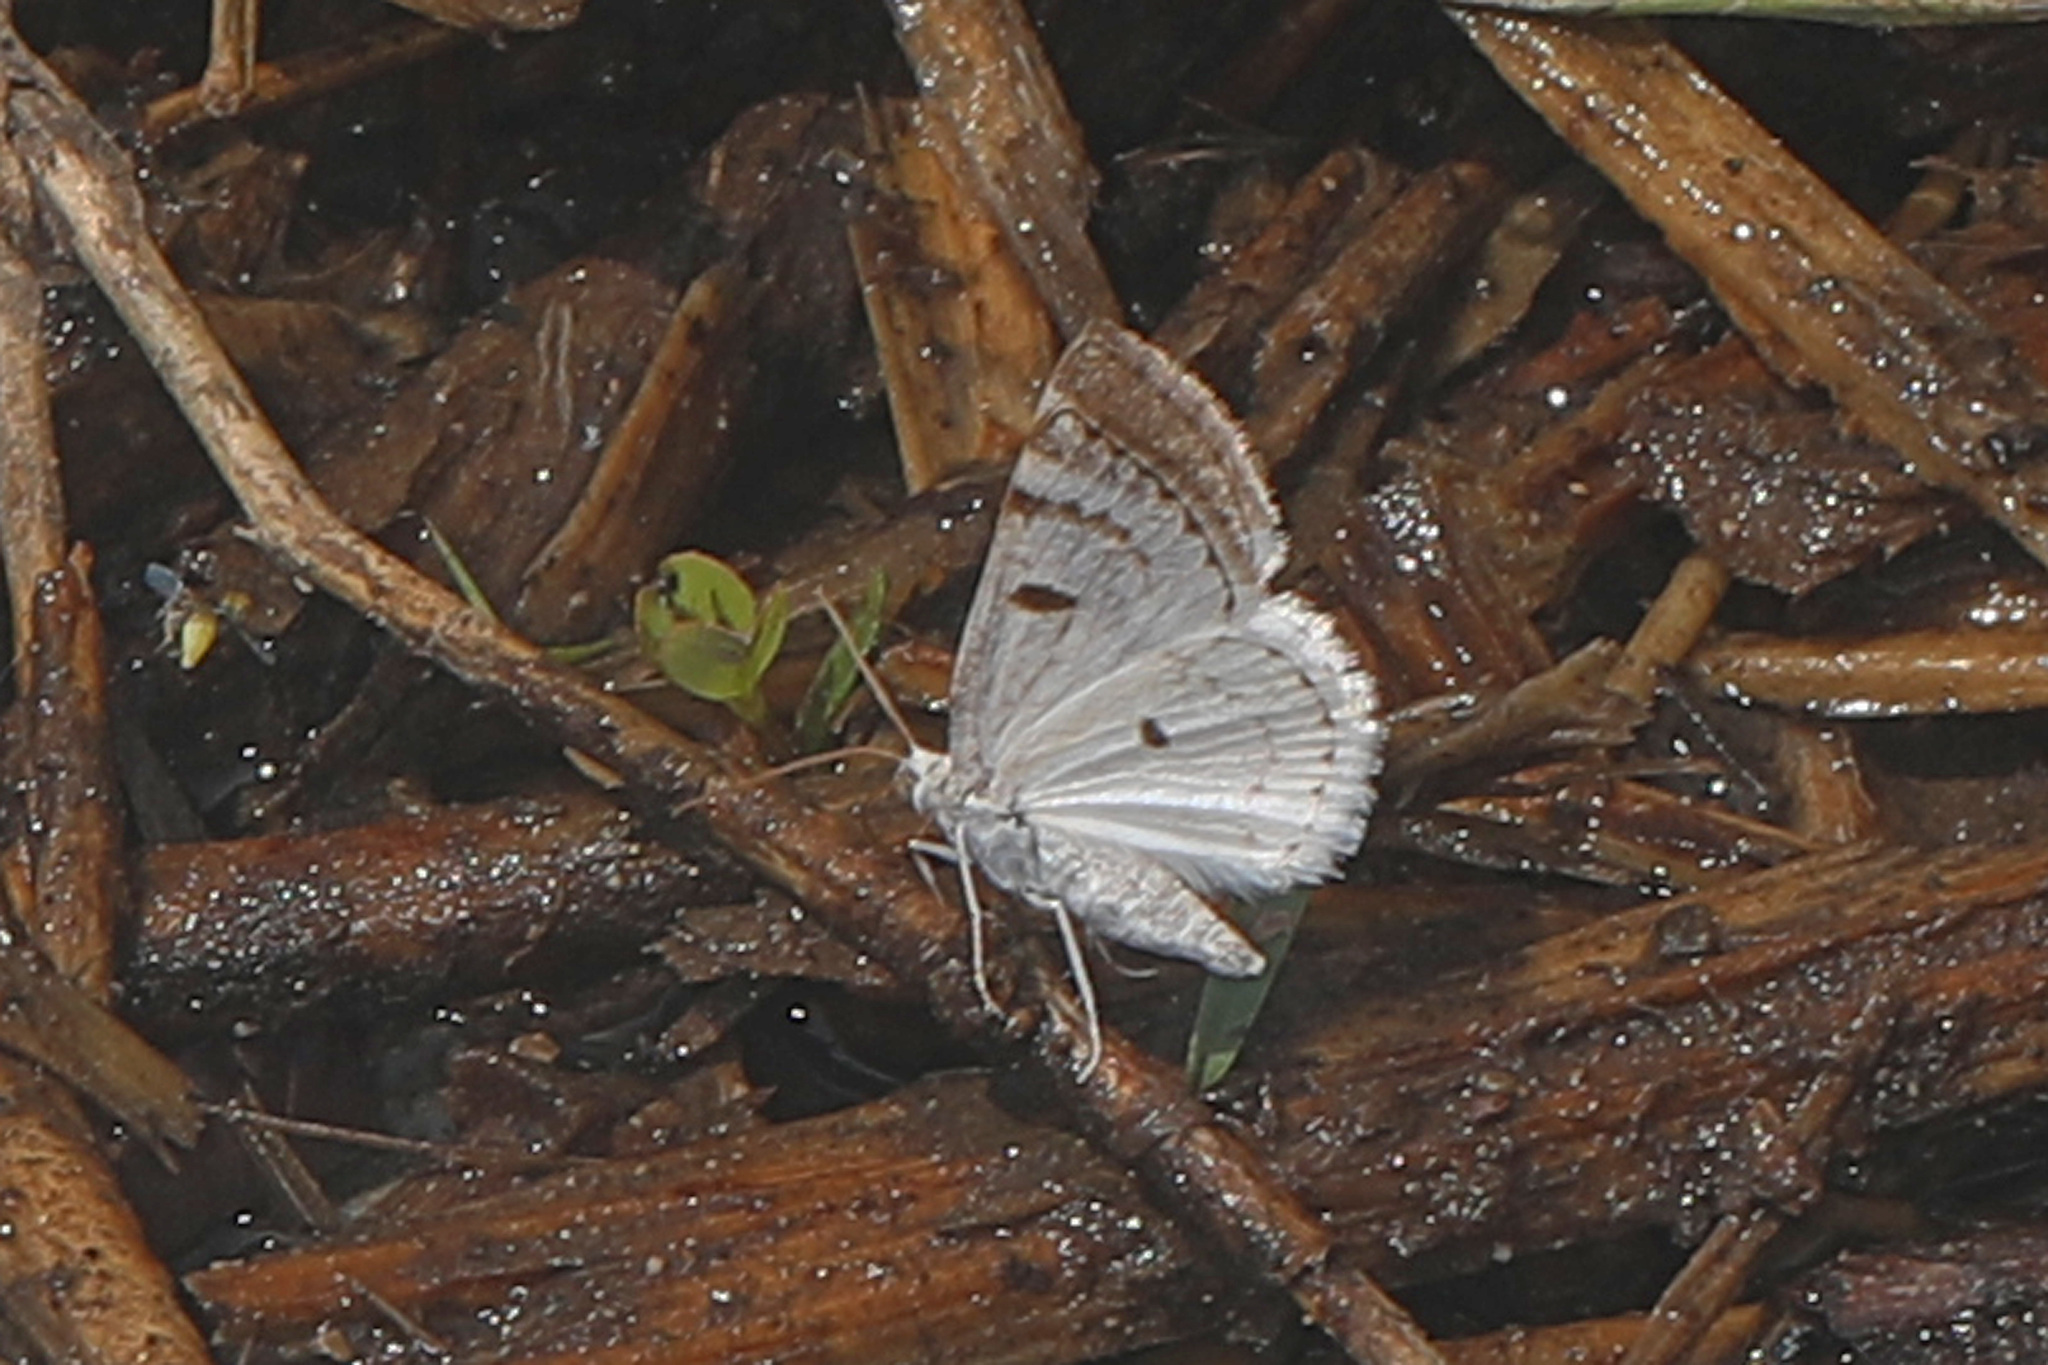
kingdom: Animalia
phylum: Arthropoda
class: Insecta
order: Lepidoptera
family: Geometridae
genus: Lomographa
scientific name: Lomographa semiclarata
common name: Bluish spring moth
